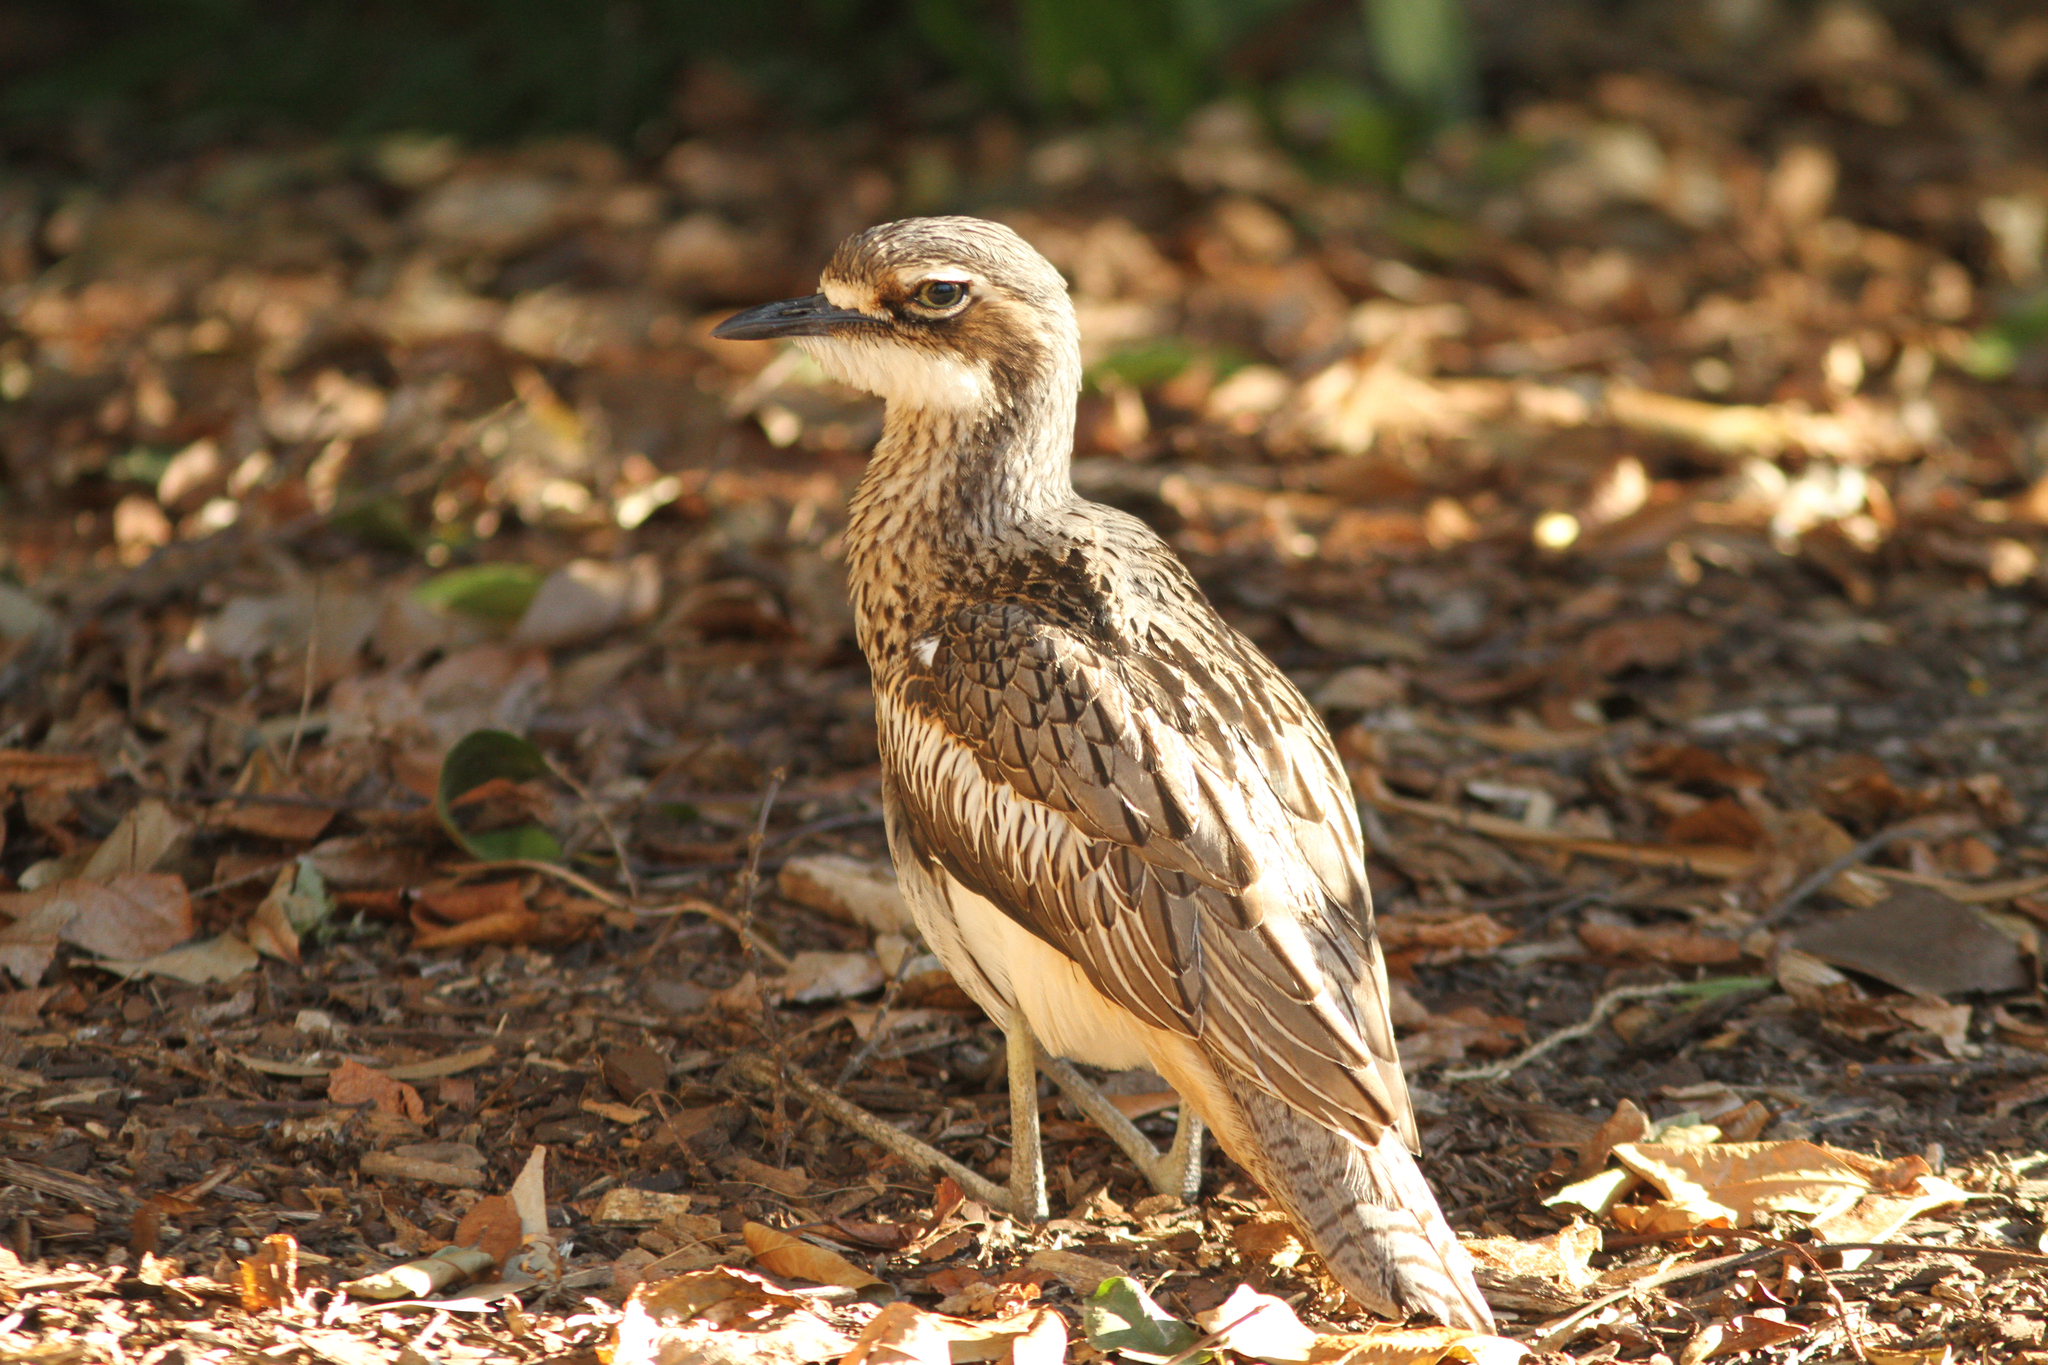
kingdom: Animalia
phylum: Chordata
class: Aves
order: Charadriiformes
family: Burhinidae
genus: Burhinus
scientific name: Burhinus grallarius
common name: Bush stone-curlew
